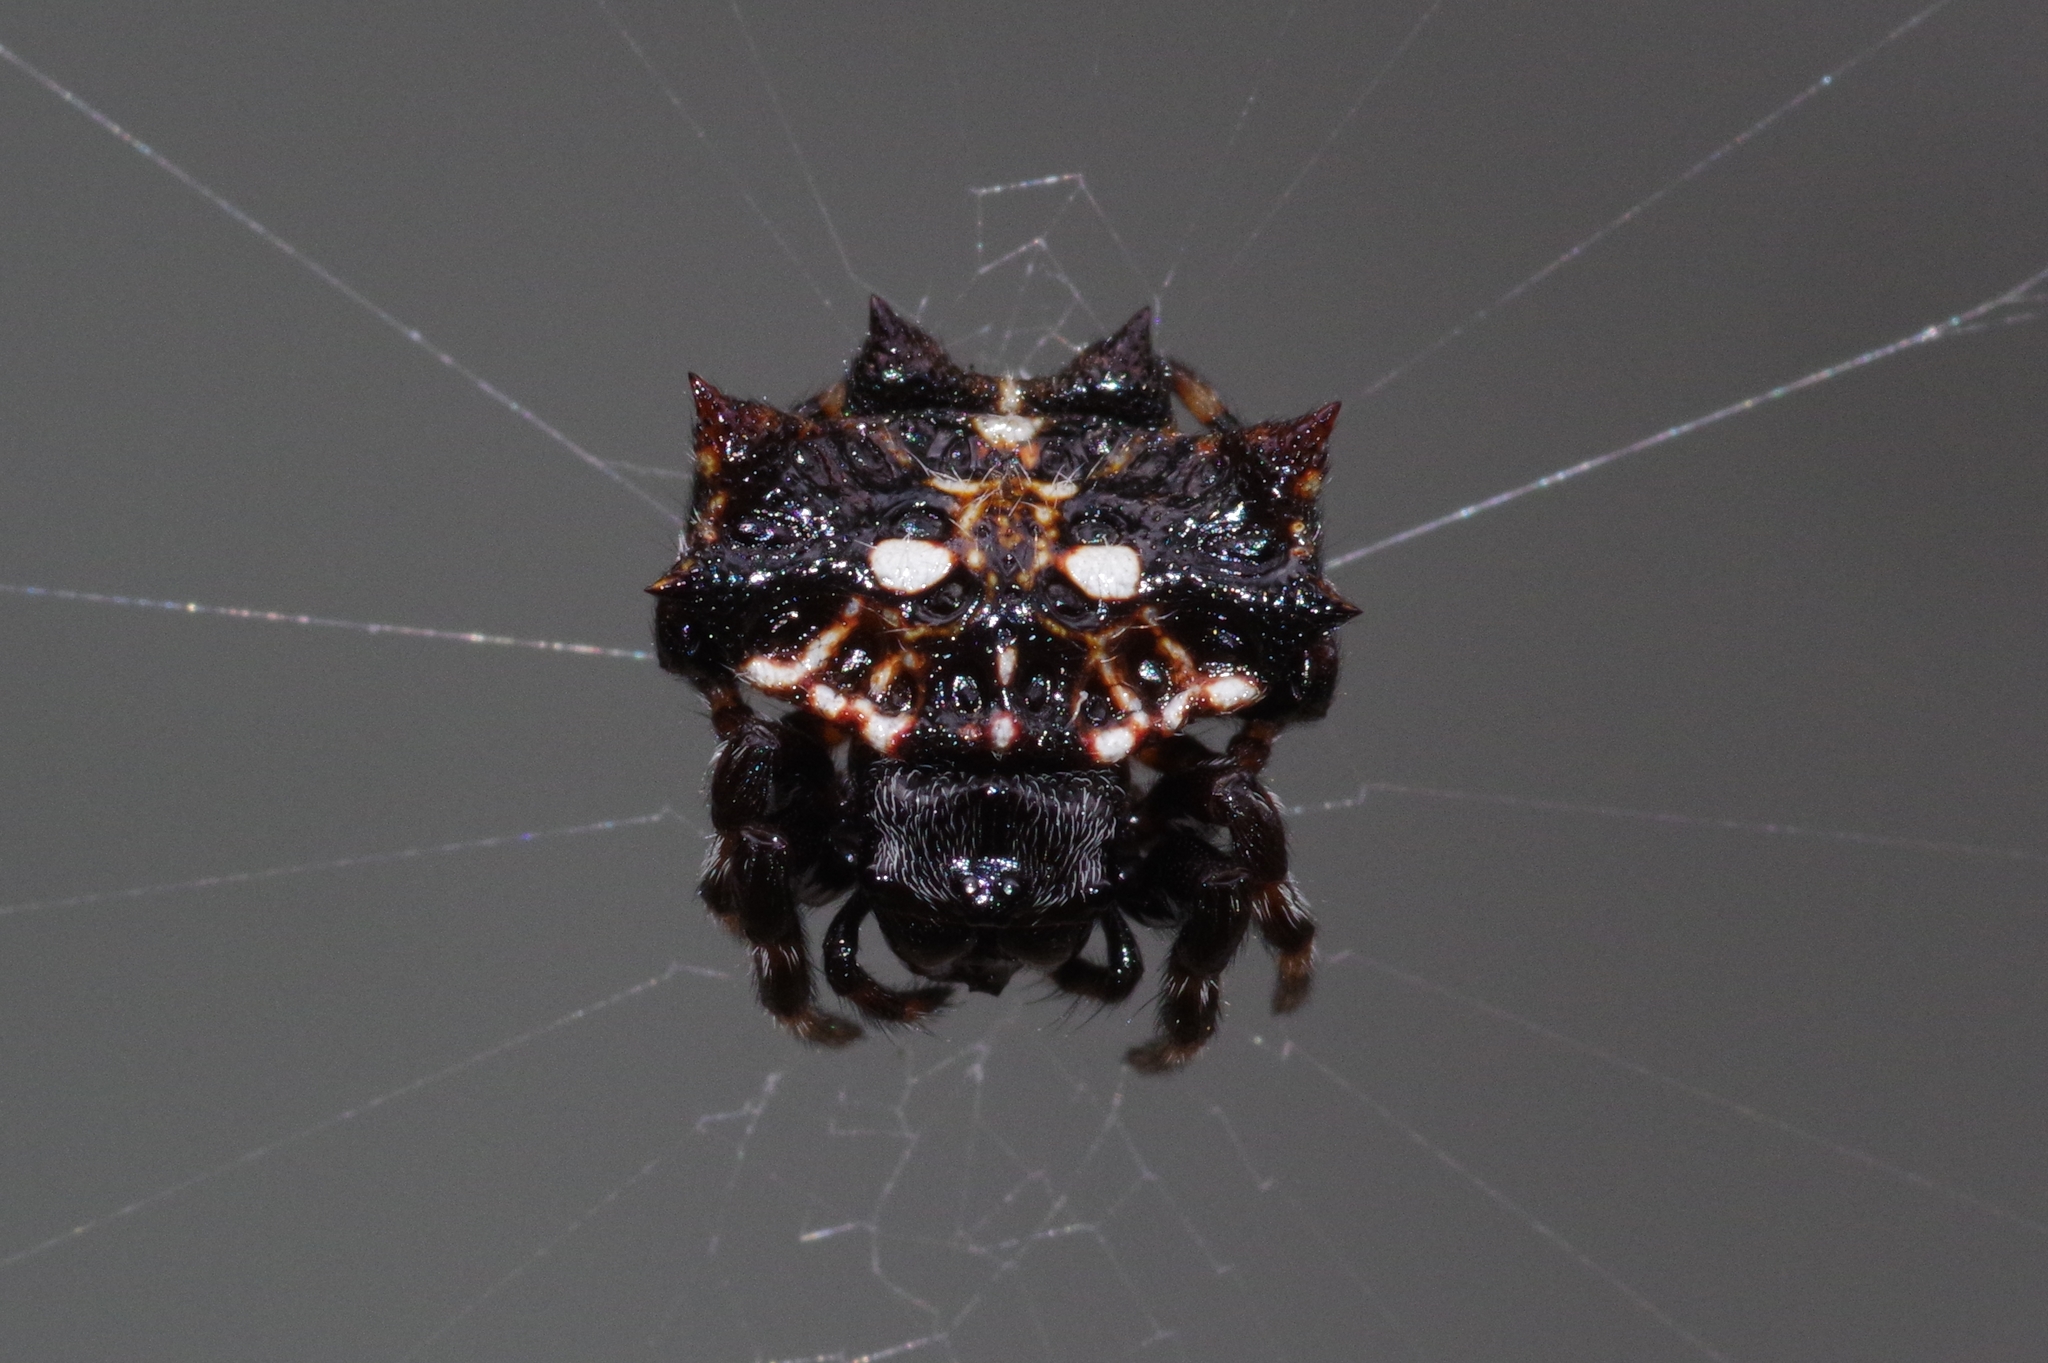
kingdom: Animalia
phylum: Arthropoda
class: Arachnida
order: Araneae
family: Araneidae
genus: Thelacantha
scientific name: Thelacantha brevispina
